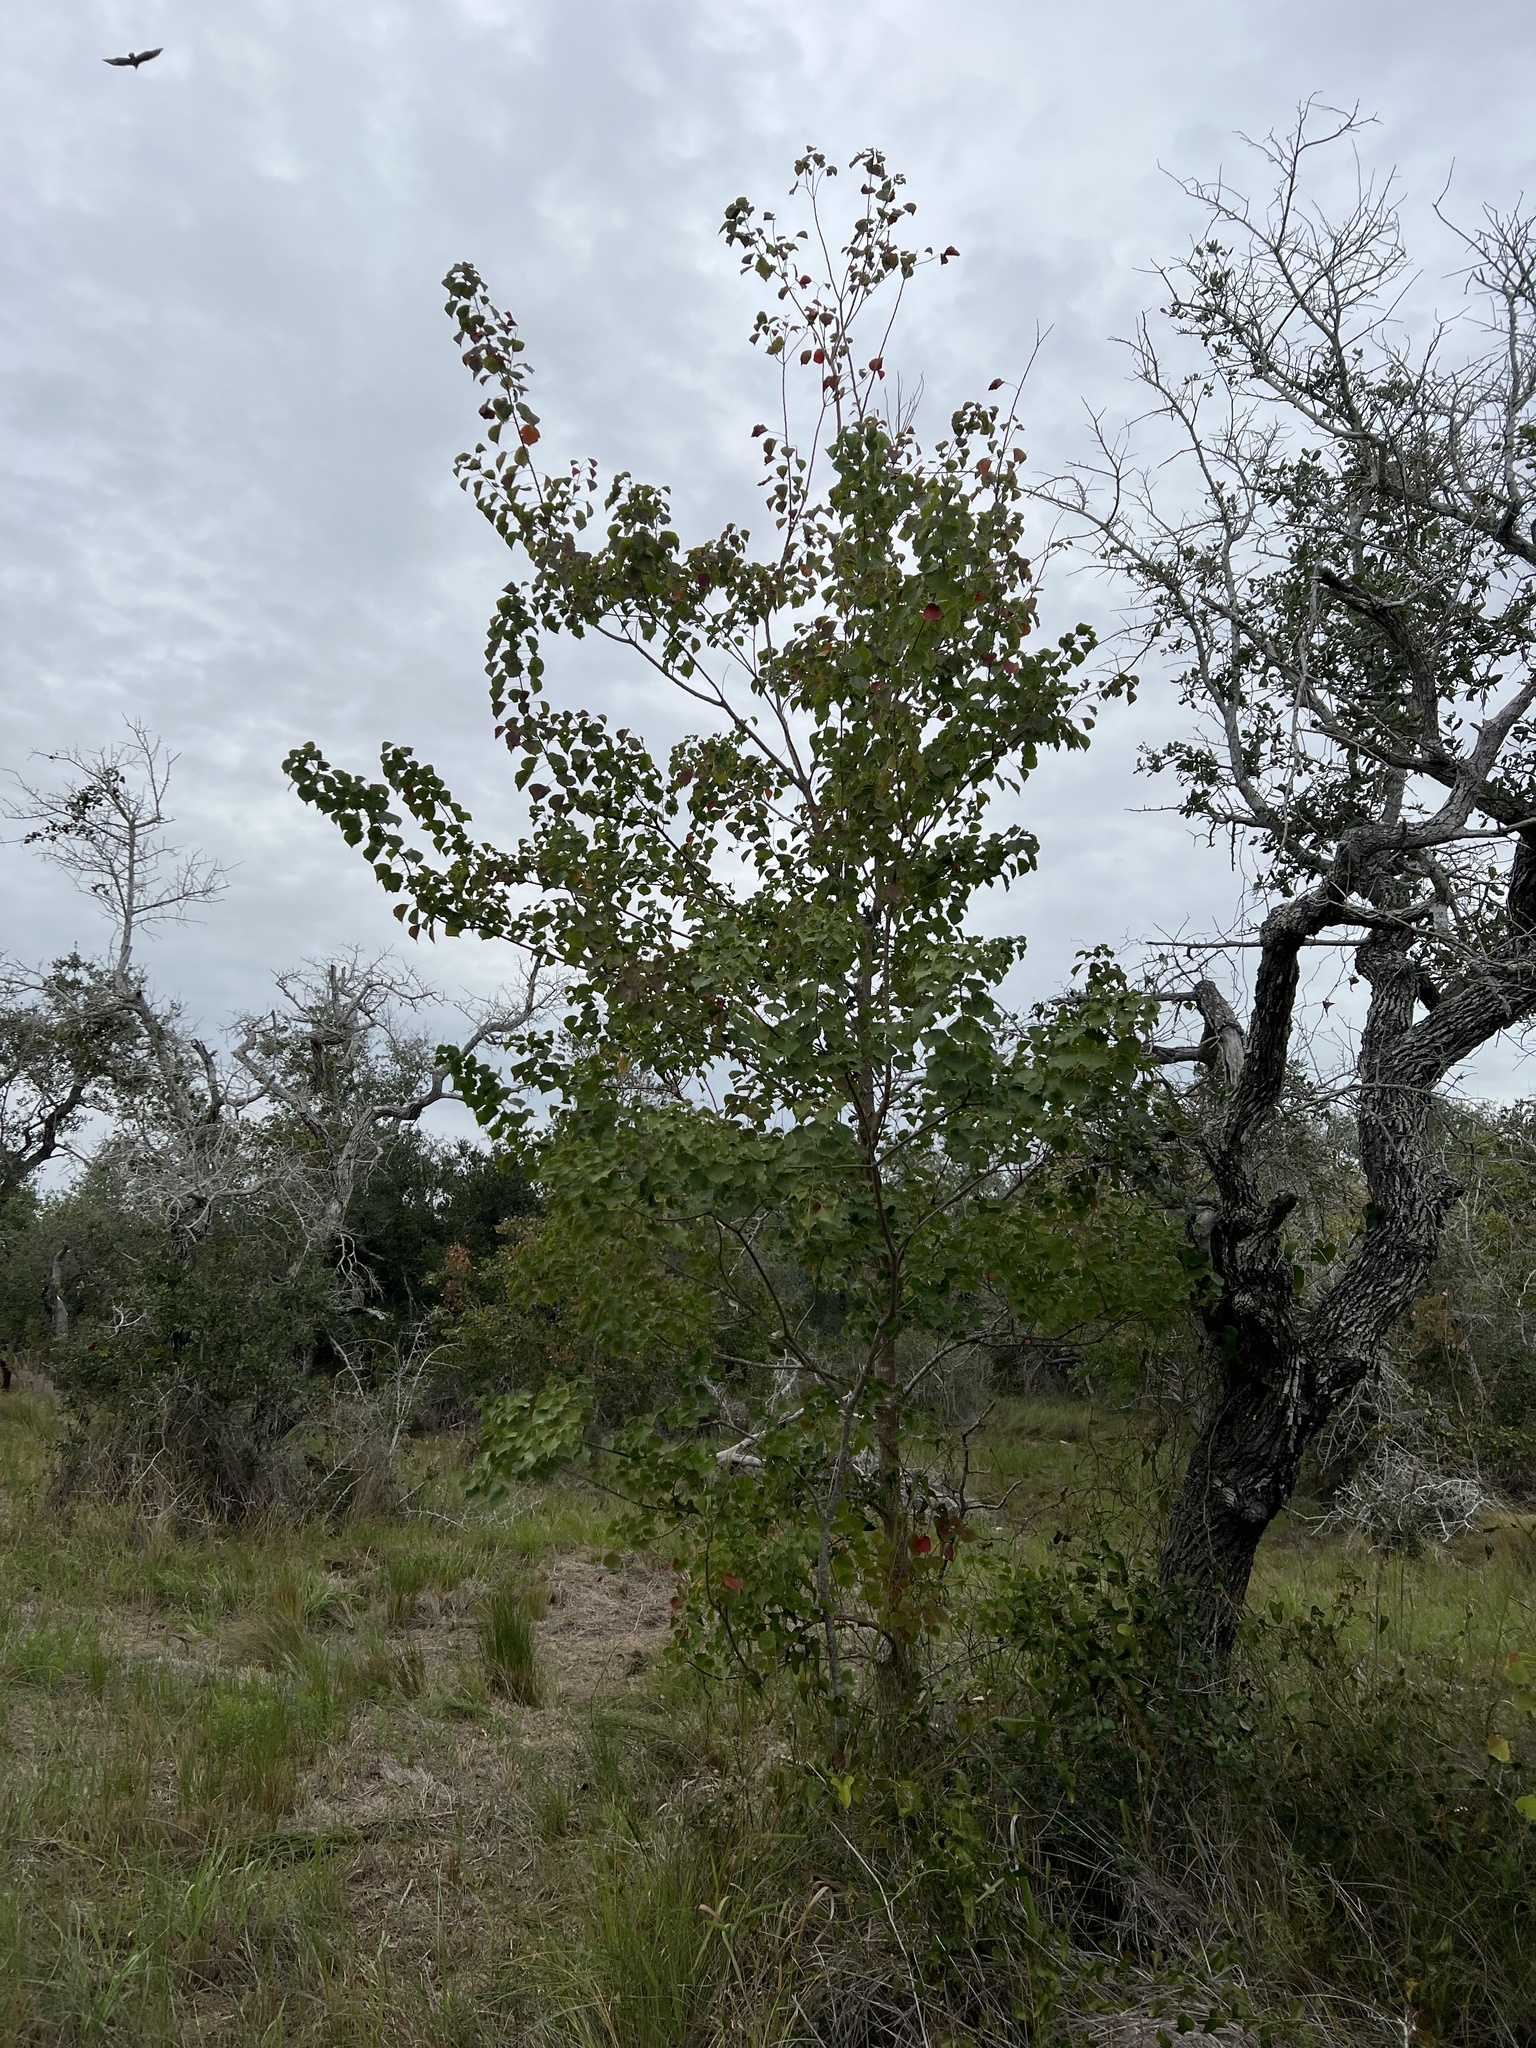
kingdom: Plantae
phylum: Tracheophyta
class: Magnoliopsida
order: Malpighiales
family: Euphorbiaceae
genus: Triadica
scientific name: Triadica sebifera
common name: Chinese tallow
